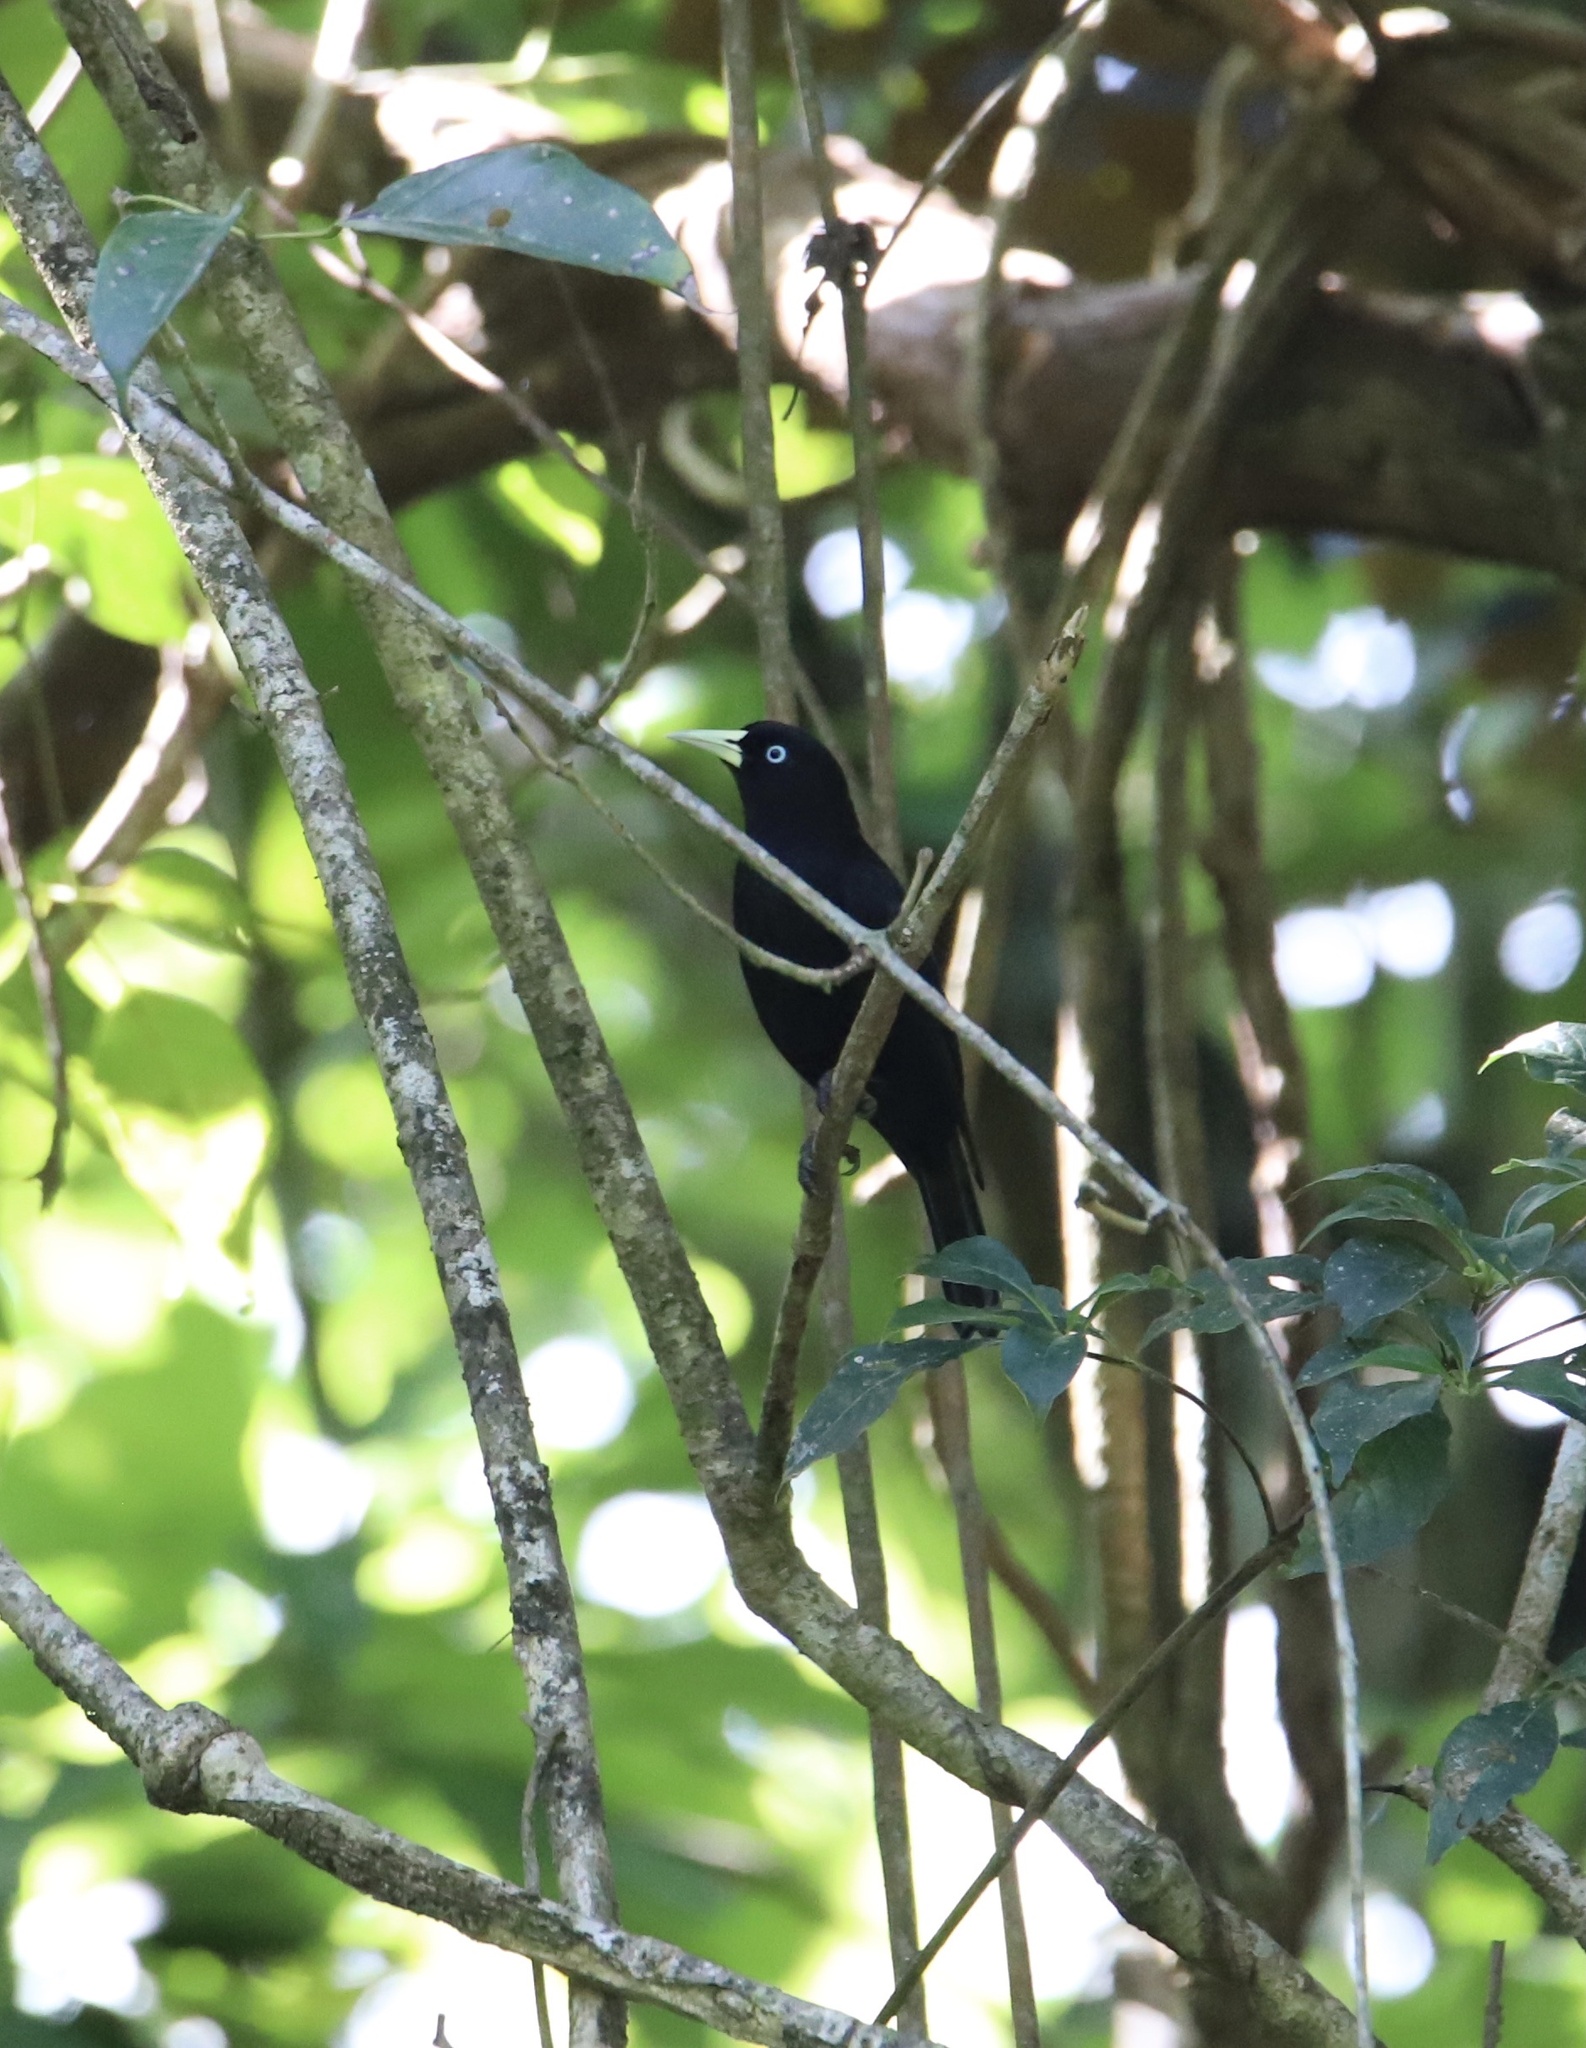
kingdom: Animalia
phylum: Chordata
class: Aves
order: Passeriformes
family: Icteridae
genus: Cacicus
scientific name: Cacicus uropygialis
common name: Scarlet-rumped cacique
